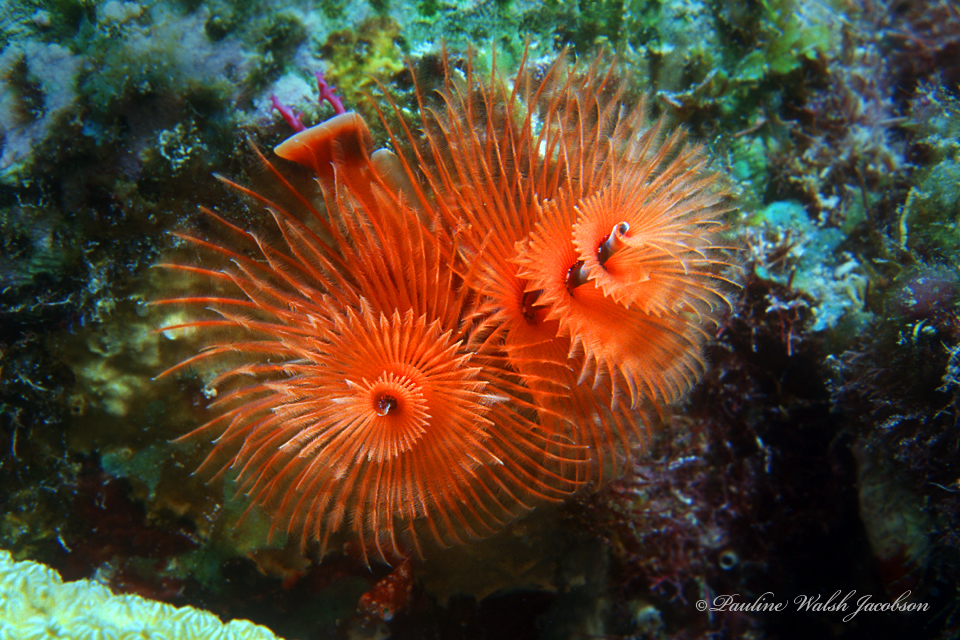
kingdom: Animalia
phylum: Annelida
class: Polychaeta
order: Sabellida
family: Serpulidae
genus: Spirobranchus
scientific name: Spirobranchus giganteus
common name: Christmas tree worm
